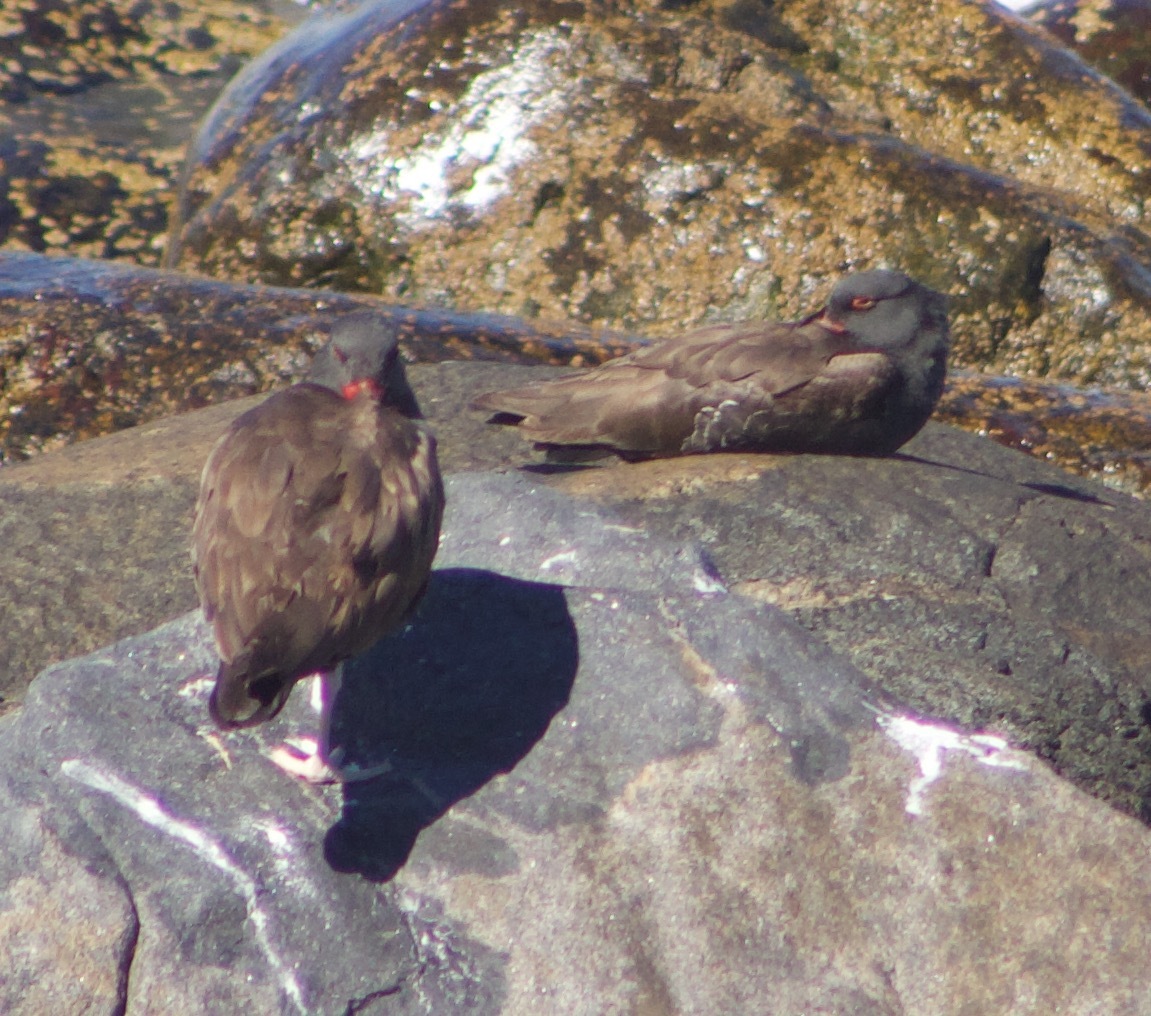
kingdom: Animalia
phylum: Chordata
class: Aves
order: Charadriiformes
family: Haematopodidae
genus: Haematopus
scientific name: Haematopus ater
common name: Blackish oystercatcher
